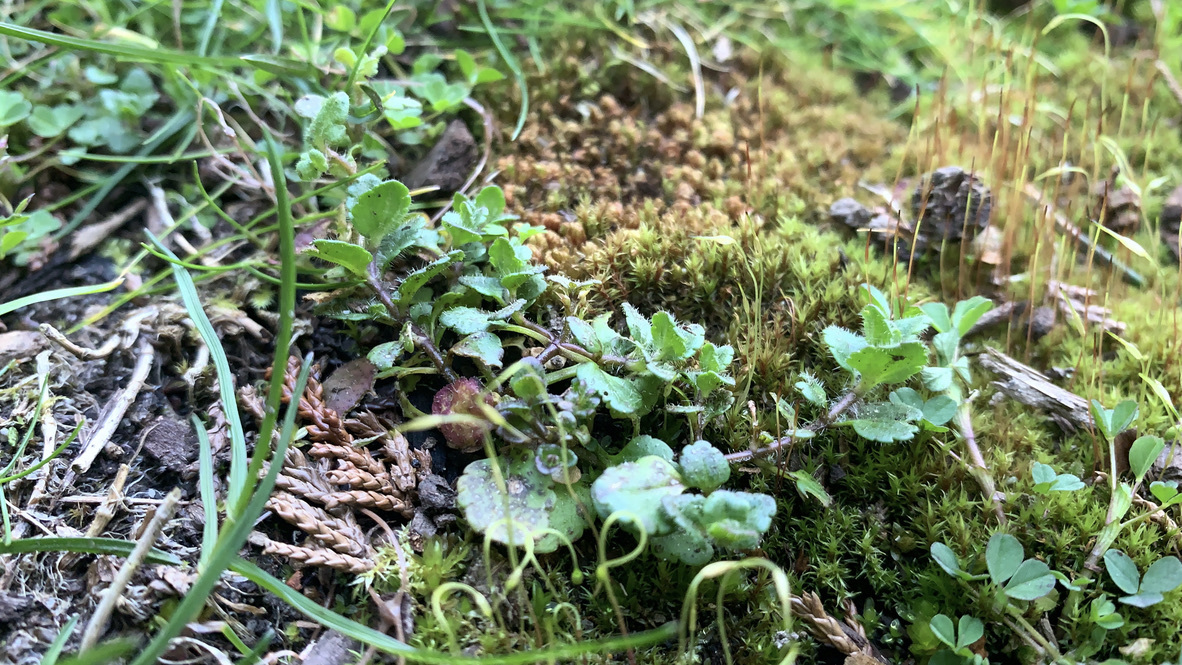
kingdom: Plantae
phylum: Tracheophyta
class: Magnoliopsida
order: Lamiales
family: Plantaginaceae
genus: Veronica
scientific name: Veronica arvensis
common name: Corn speedwell
